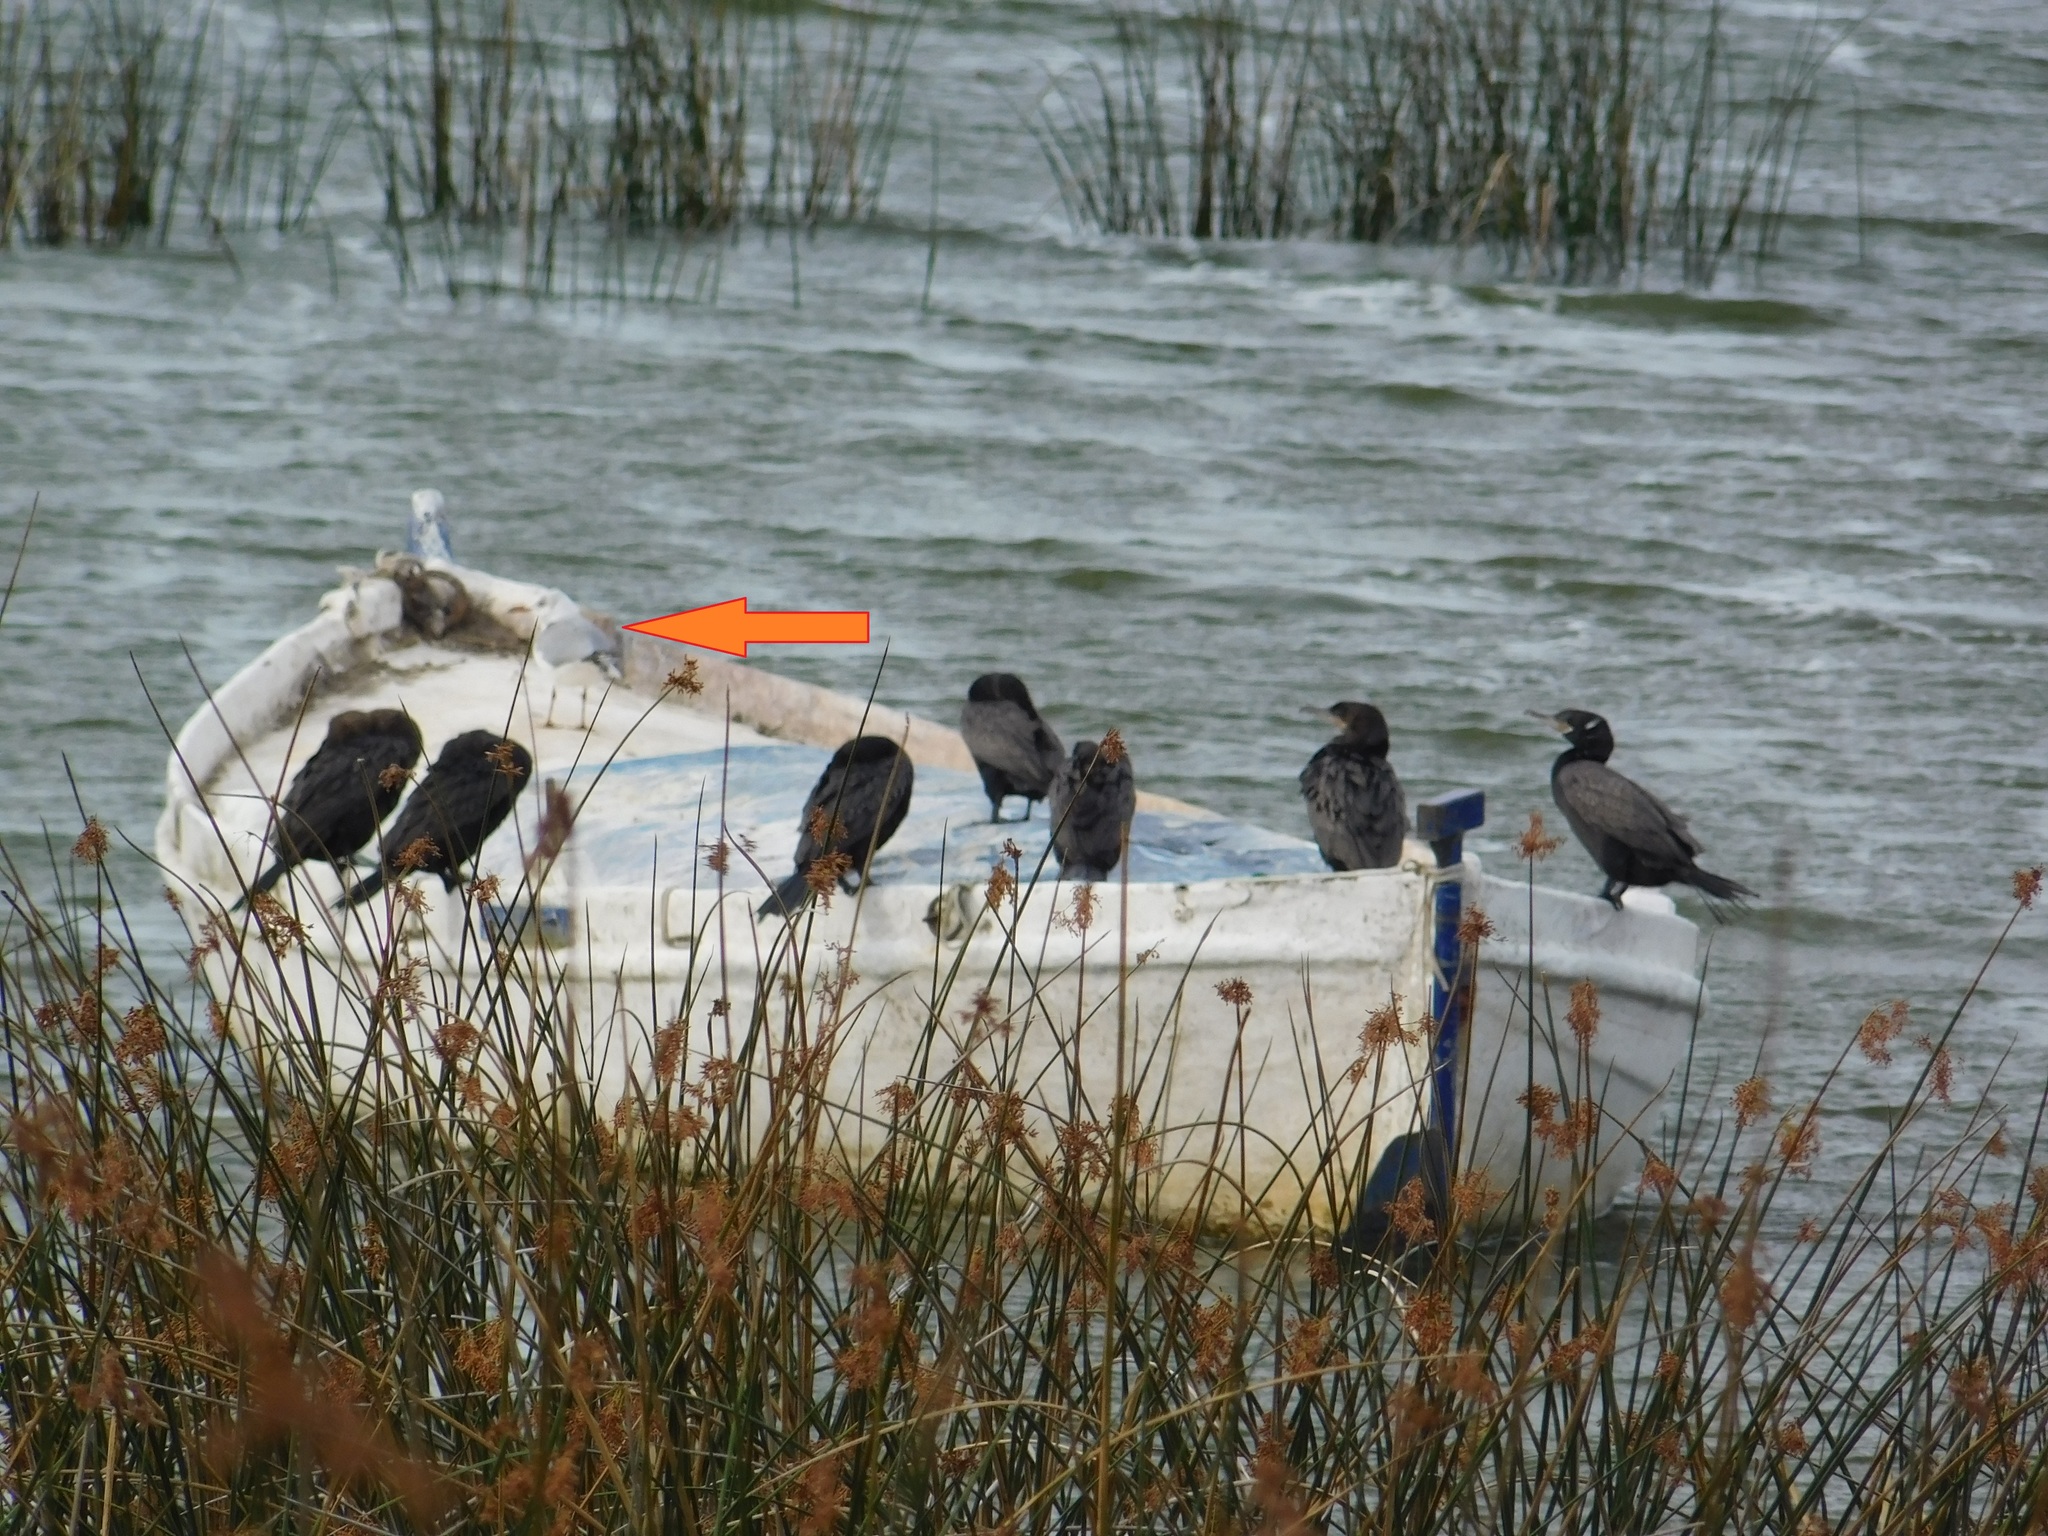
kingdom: Animalia
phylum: Chordata
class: Aves
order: Charadriiformes
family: Laridae
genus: Chroicocephalus
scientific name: Chroicocephalus maculipennis
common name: Brown-hooded gull
